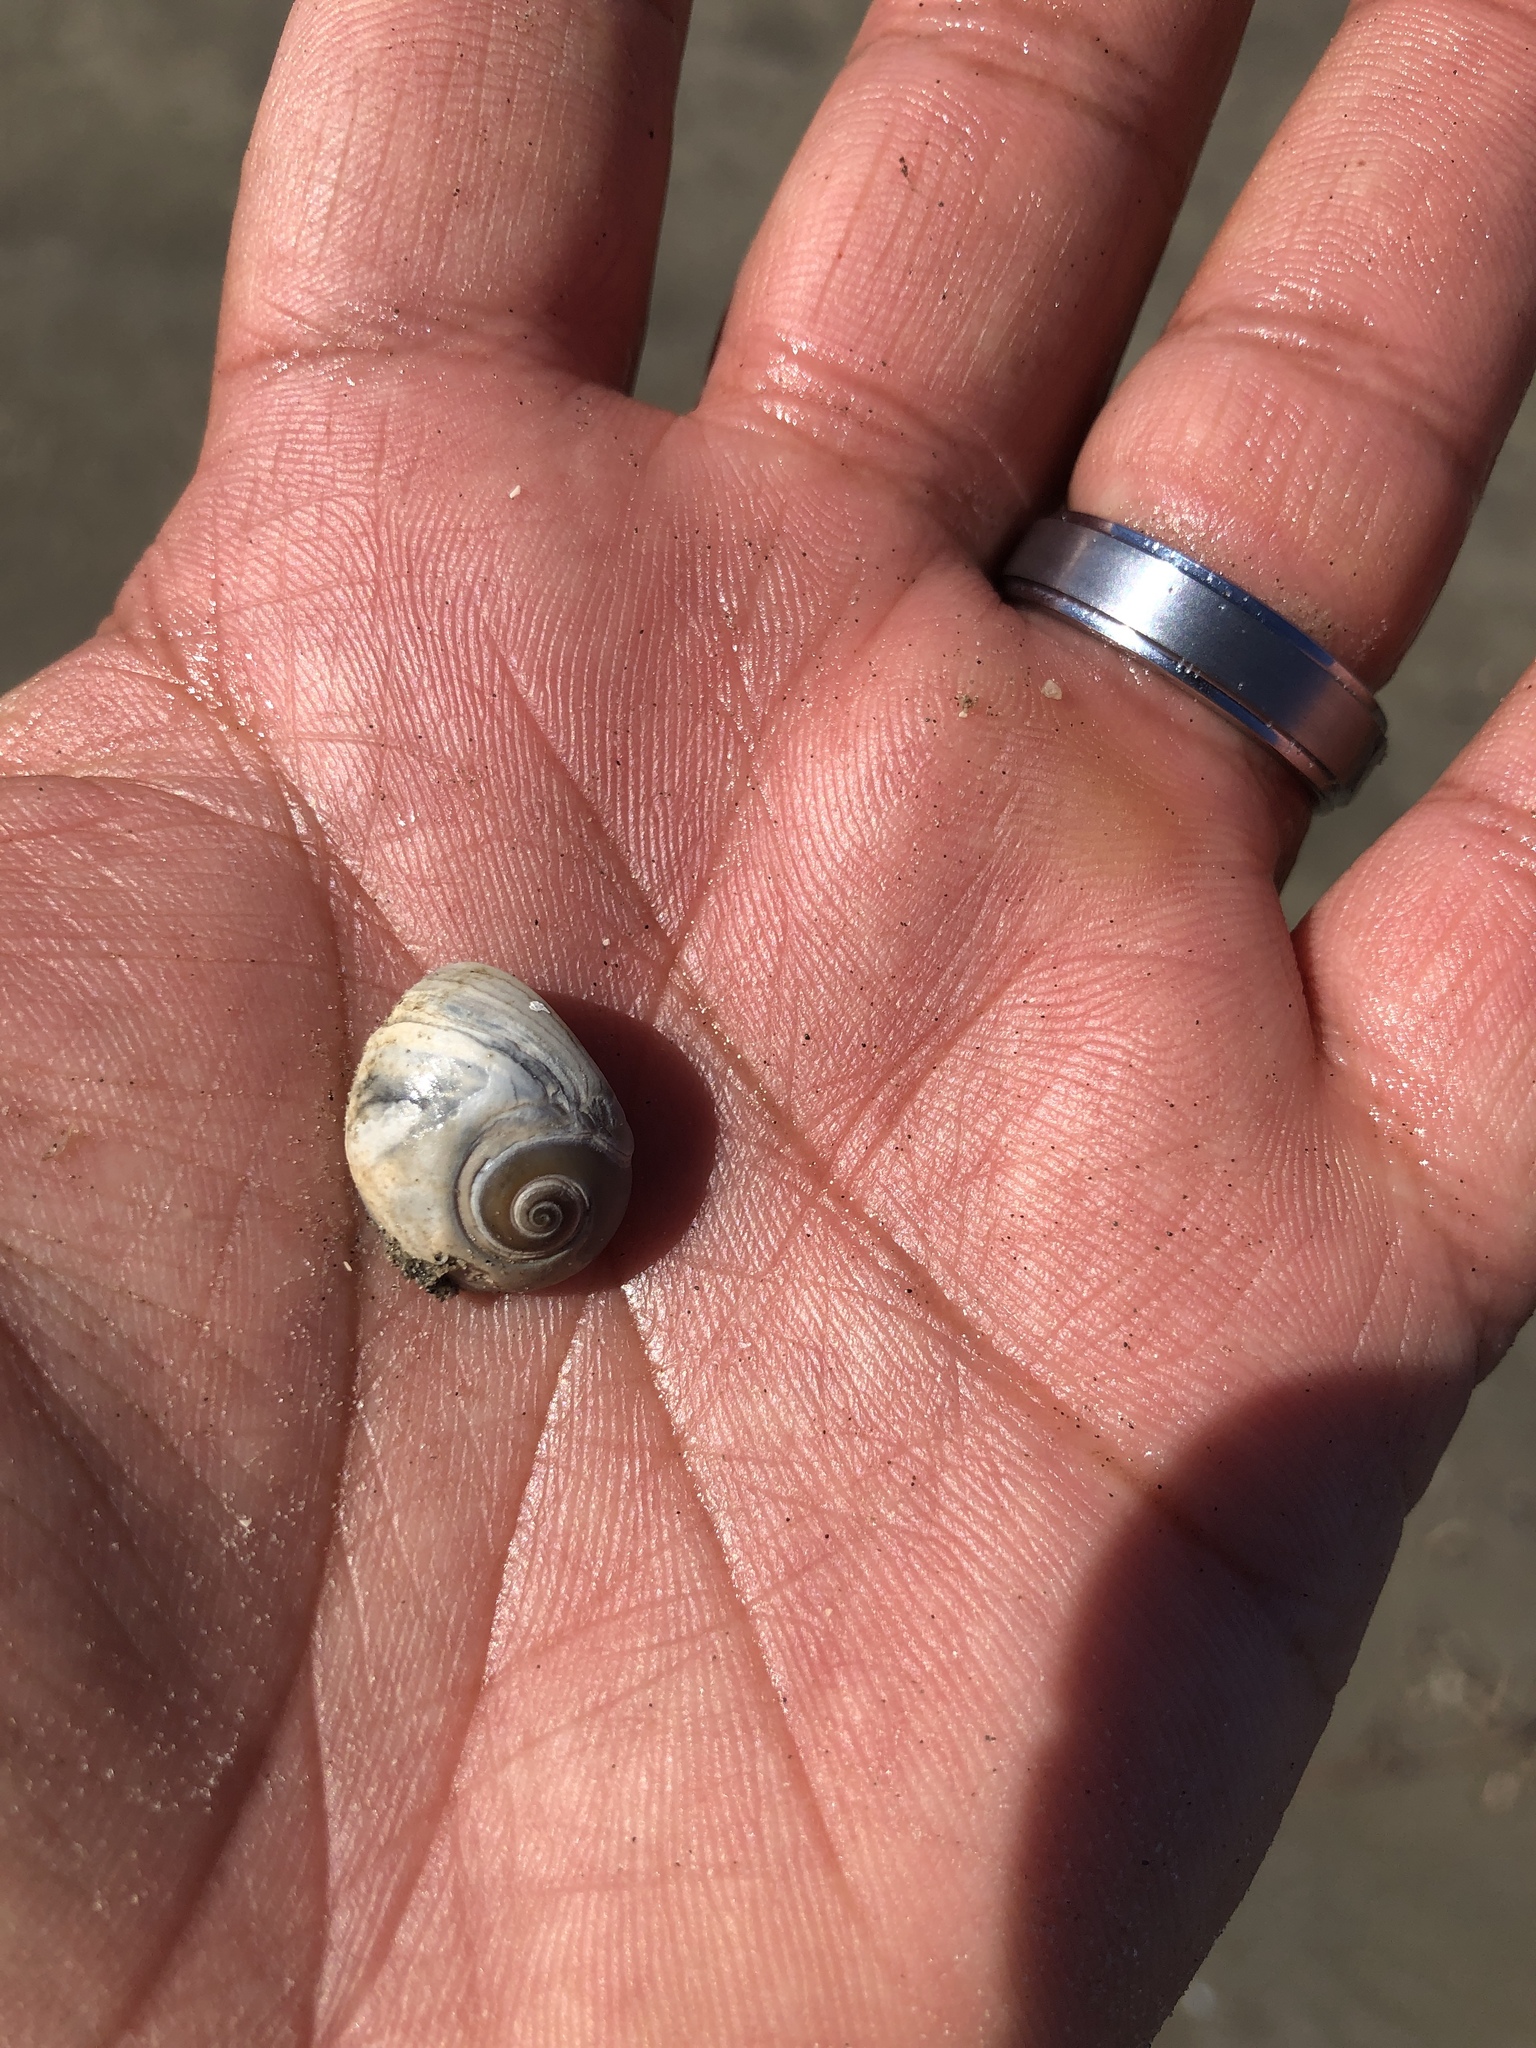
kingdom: Animalia
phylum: Mollusca
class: Gastropoda
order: Littorinimorpha
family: Naticidae
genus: Neverita
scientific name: Neverita duplicata
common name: Lobed moonsnail
